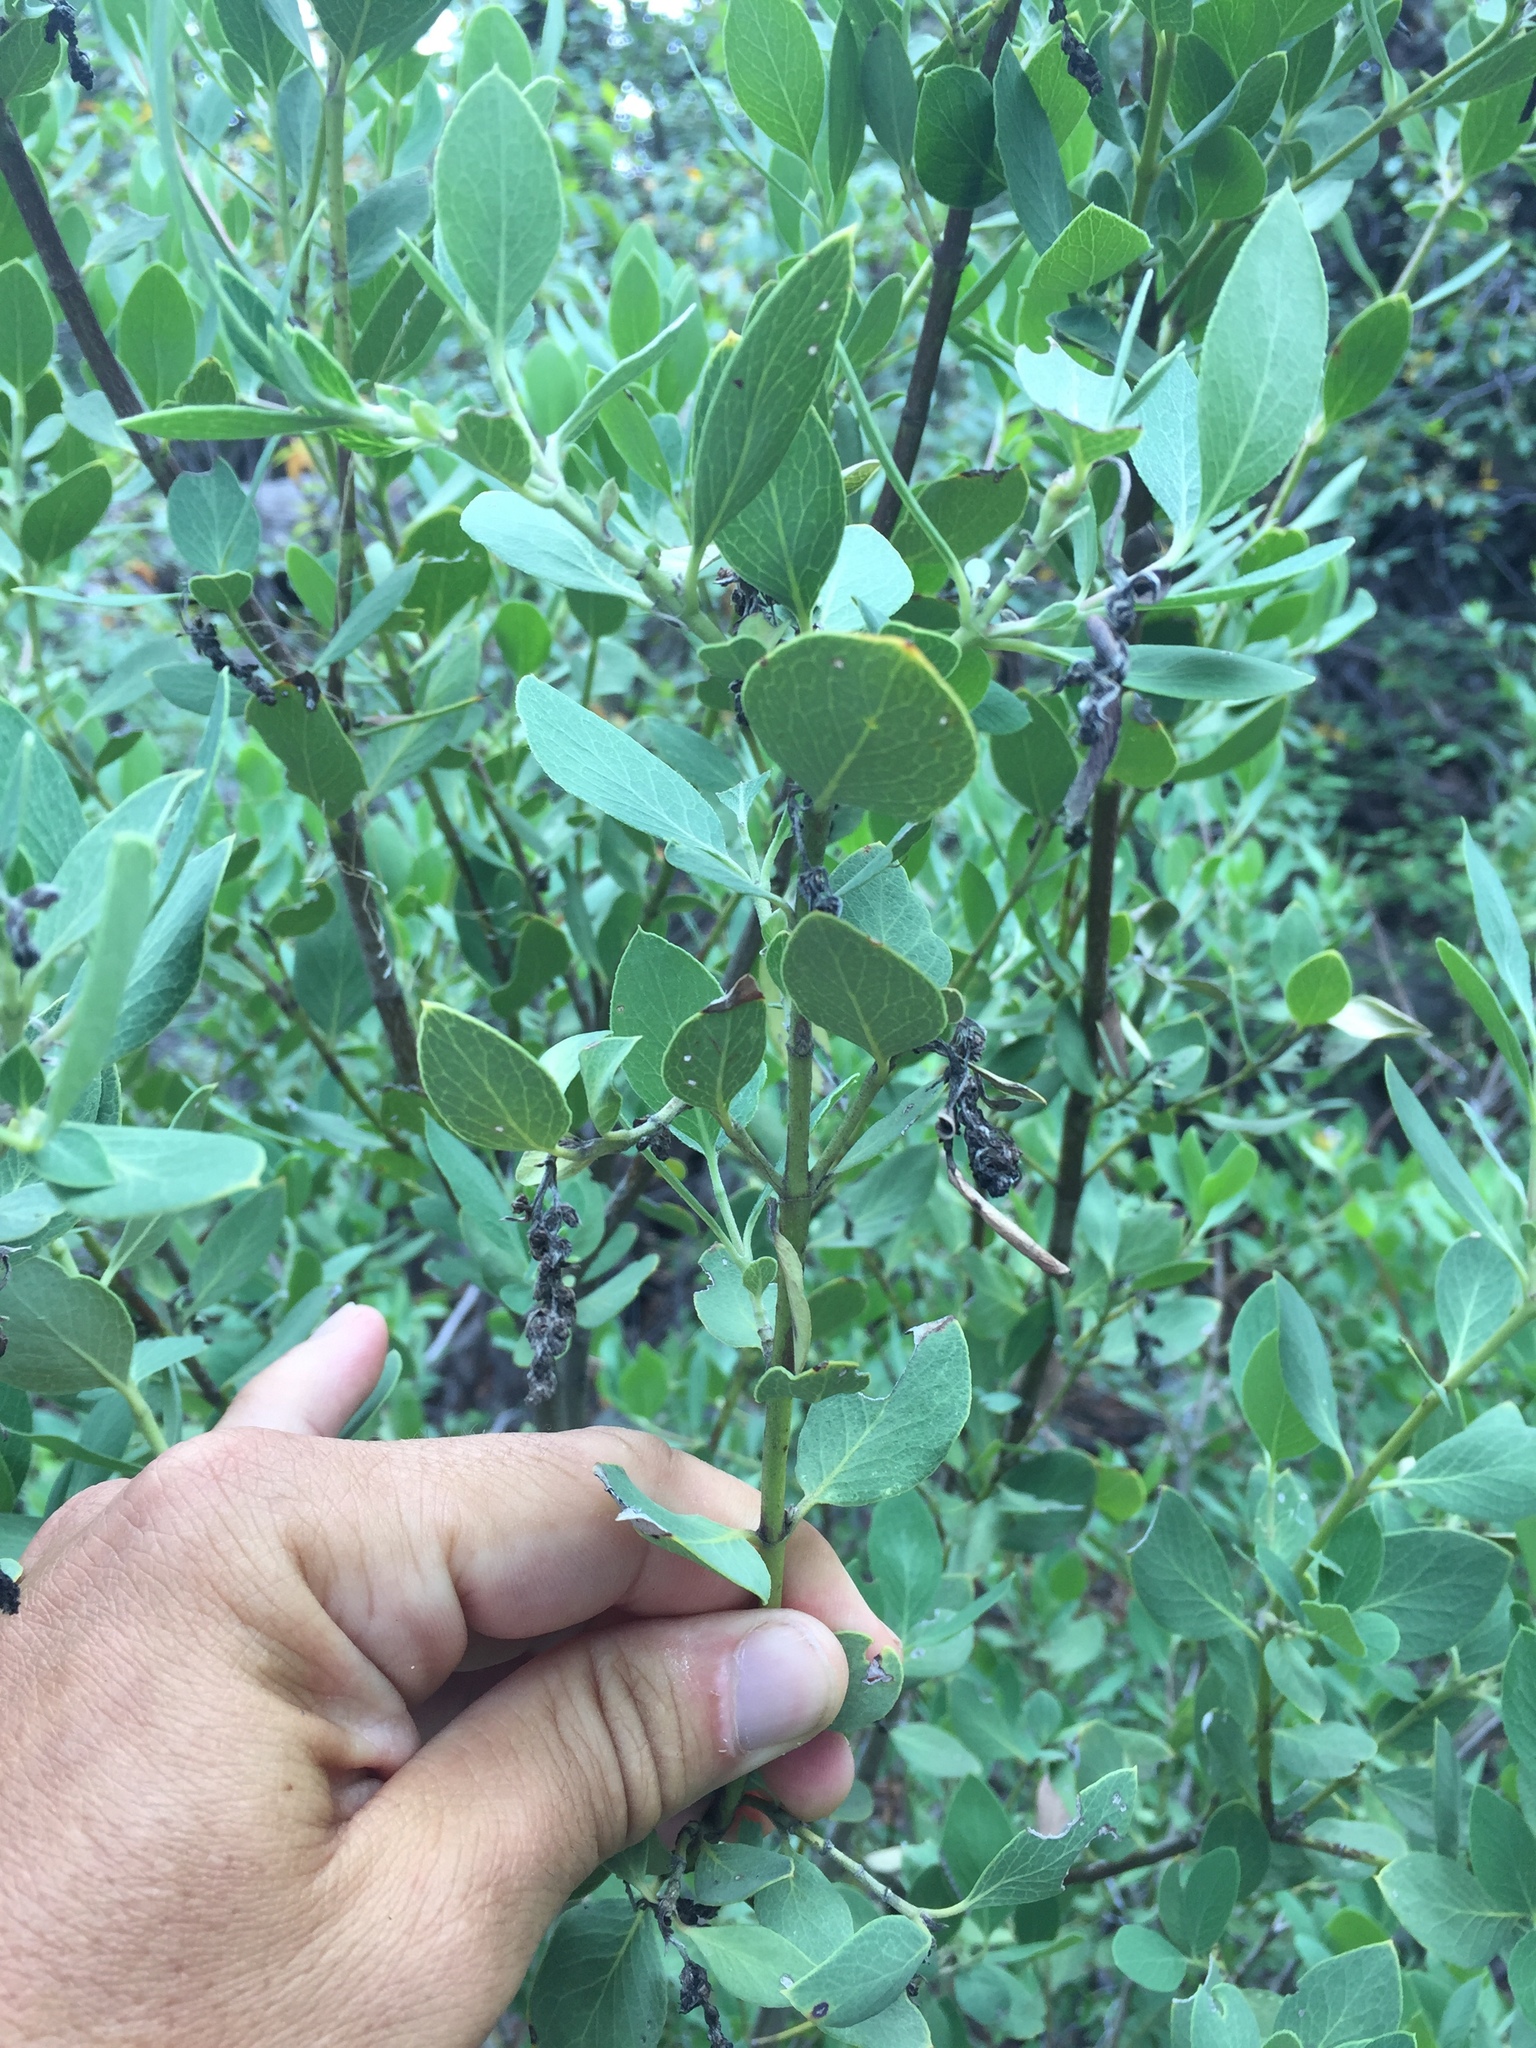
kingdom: Plantae
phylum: Tracheophyta
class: Magnoliopsida
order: Garryales
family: Garryaceae
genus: Garrya
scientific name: Garrya wrightii
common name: Wright's silktassel
